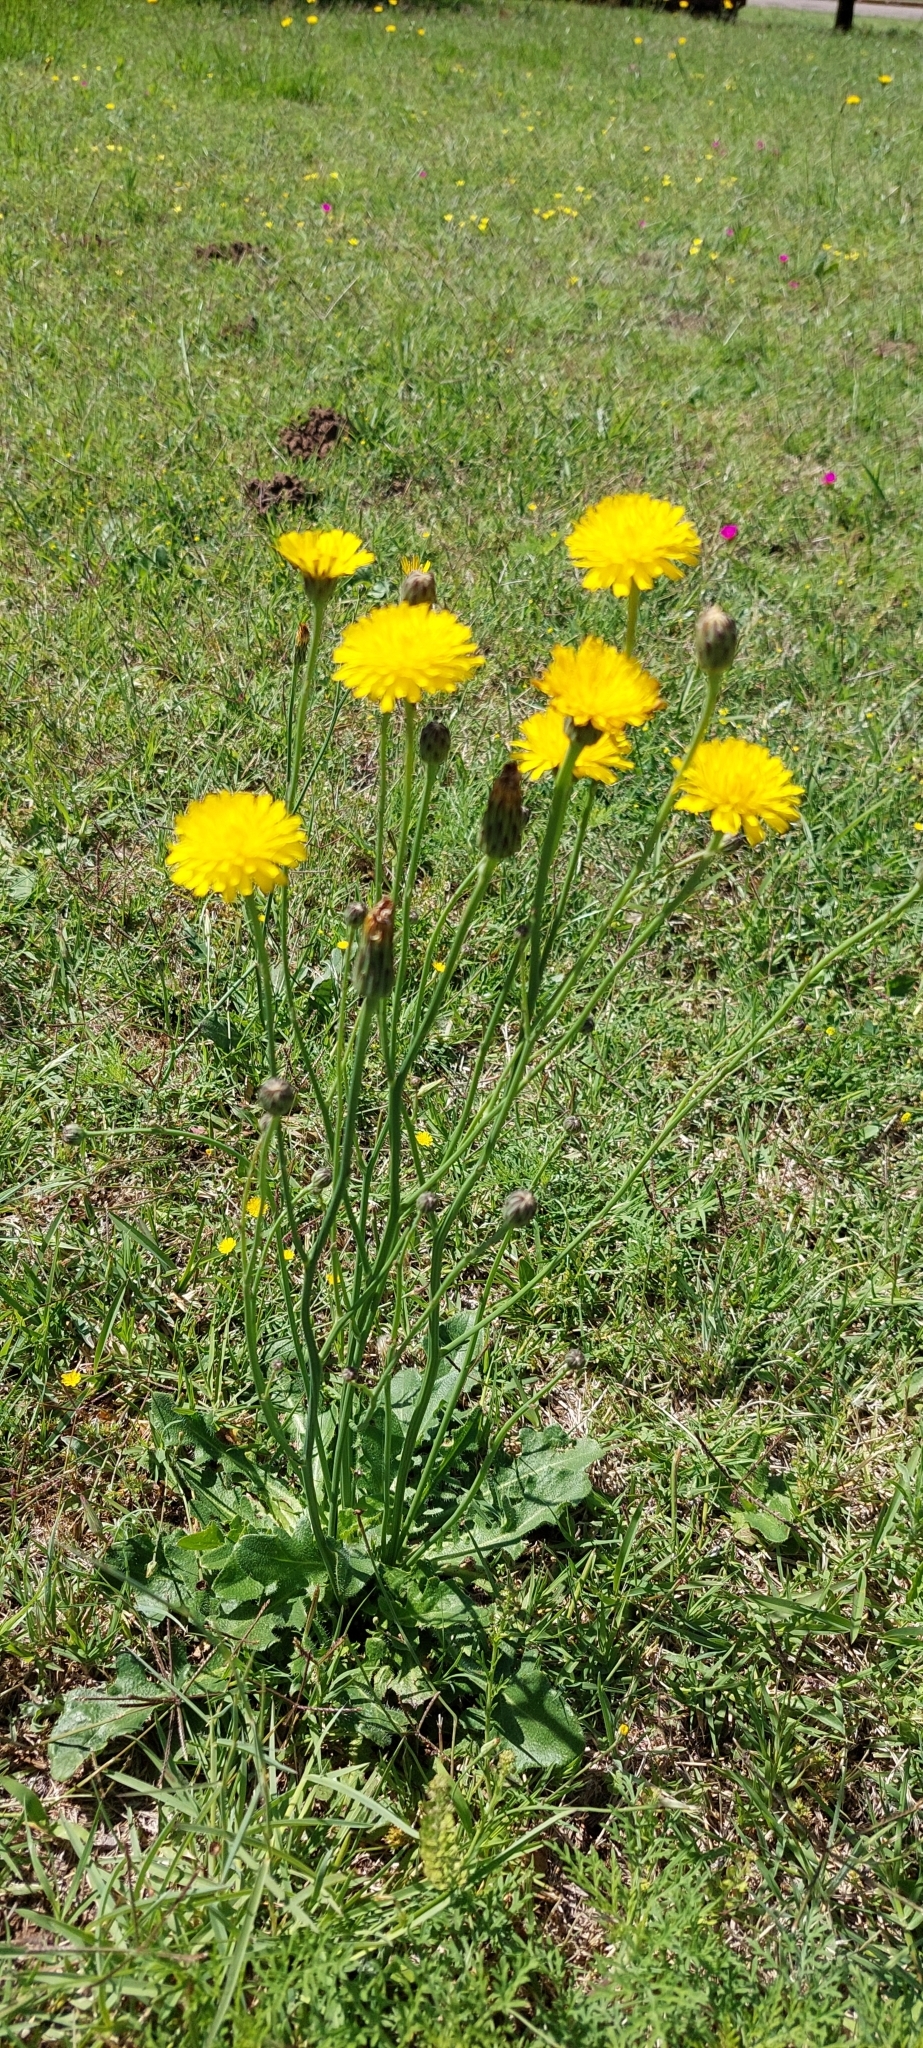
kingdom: Plantae
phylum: Tracheophyta
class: Magnoliopsida
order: Asterales
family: Asteraceae
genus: Hypochaeris
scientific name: Hypochaeris radicata
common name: Flatweed
